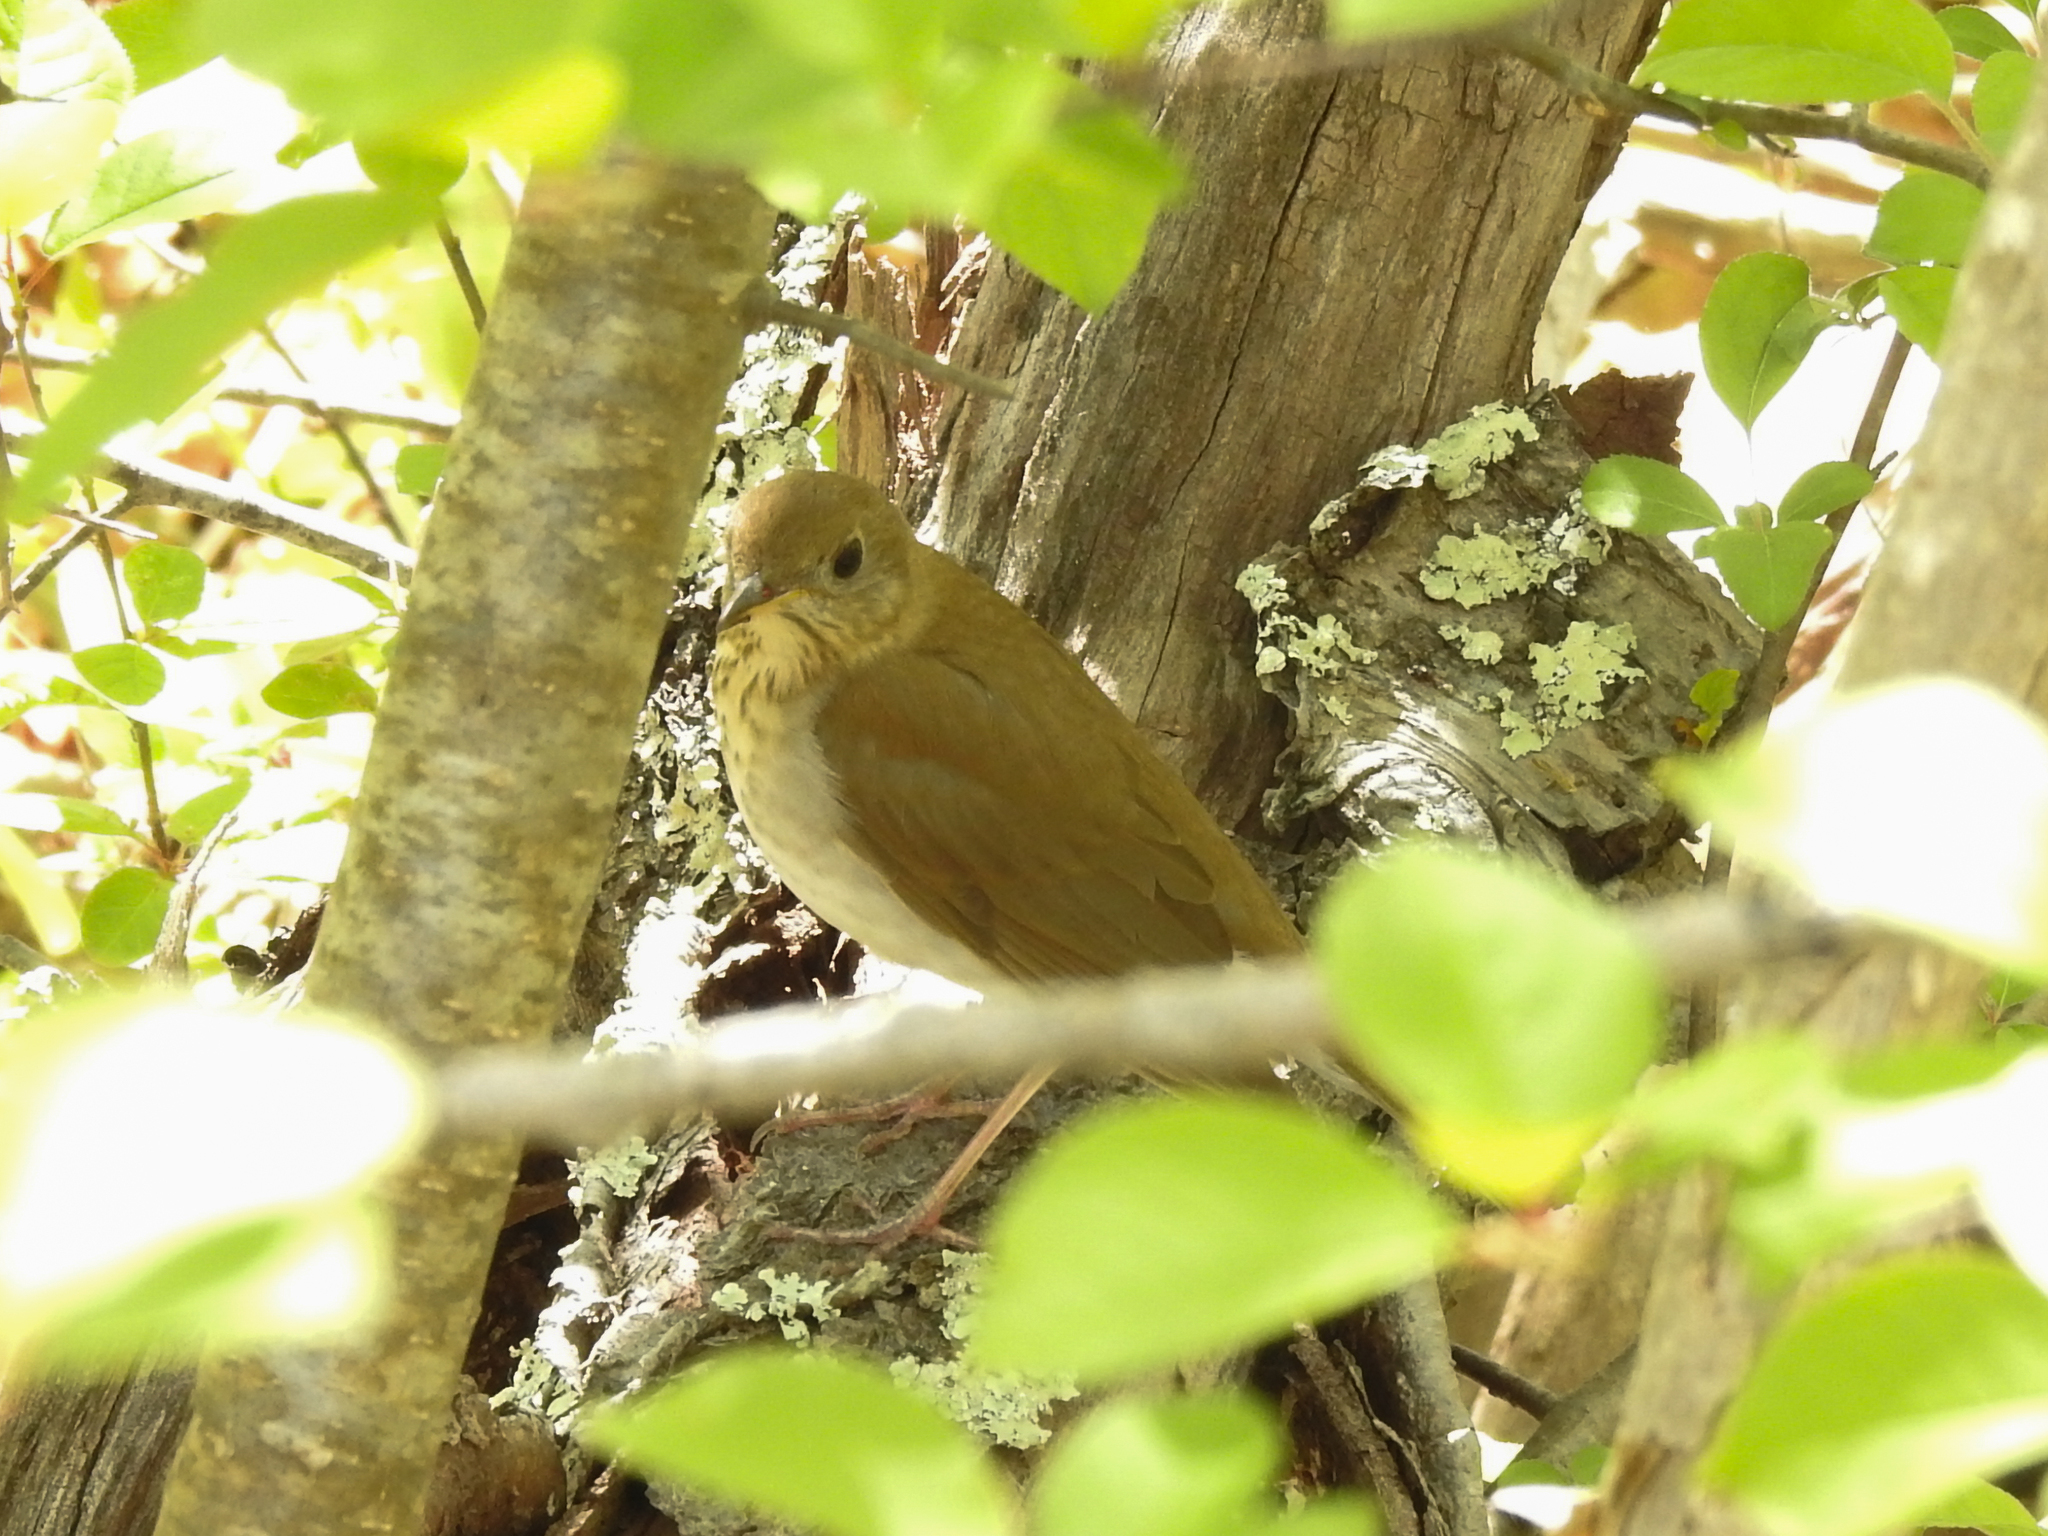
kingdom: Animalia
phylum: Chordata
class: Aves
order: Passeriformes
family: Turdidae
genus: Catharus
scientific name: Catharus fuscescens
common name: Veery
